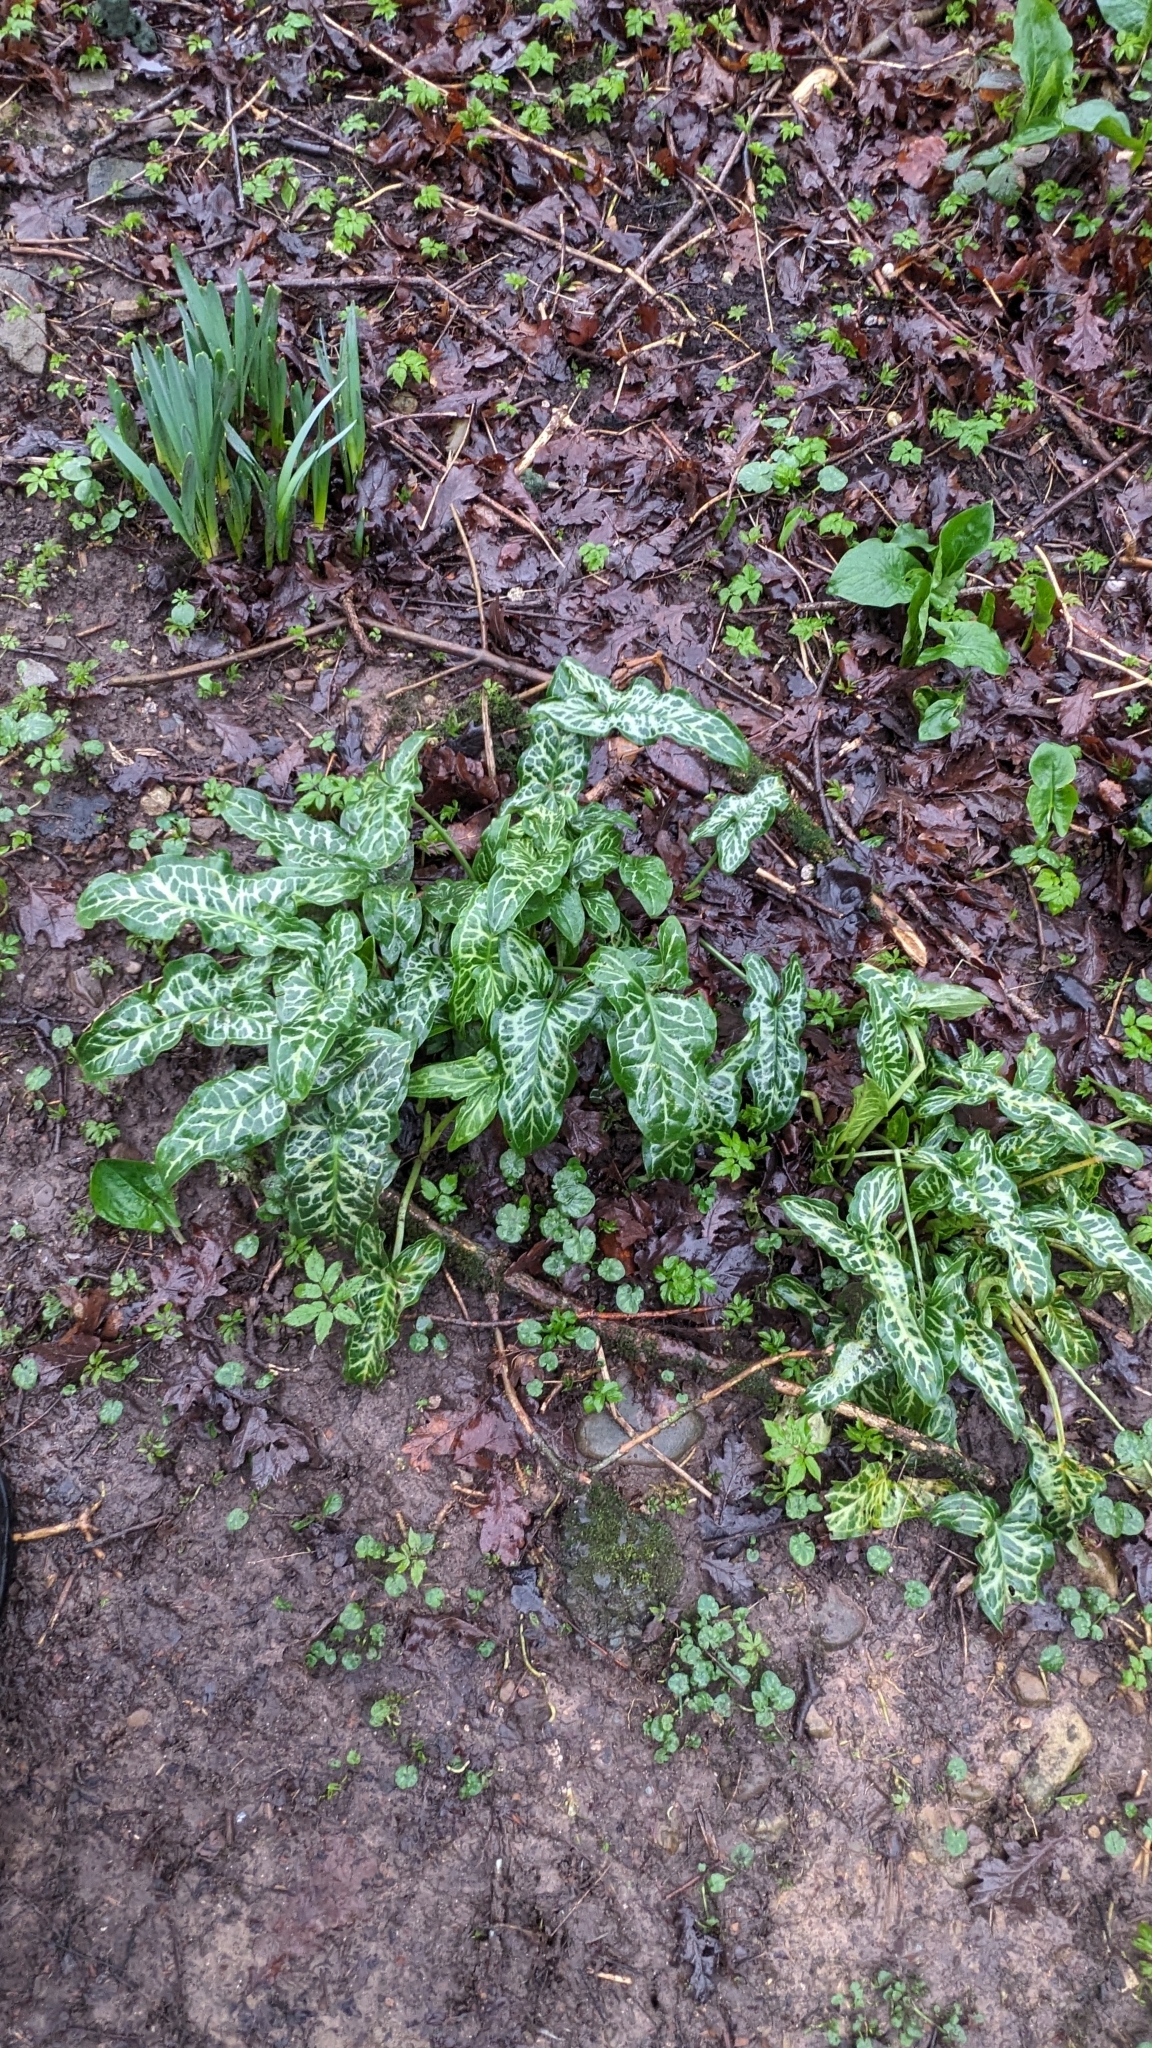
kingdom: Plantae
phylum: Tracheophyta
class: Liliopsida
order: Alismatales
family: Araceae
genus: Arum
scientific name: Arum italicum
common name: Italian lords-and-ladies
